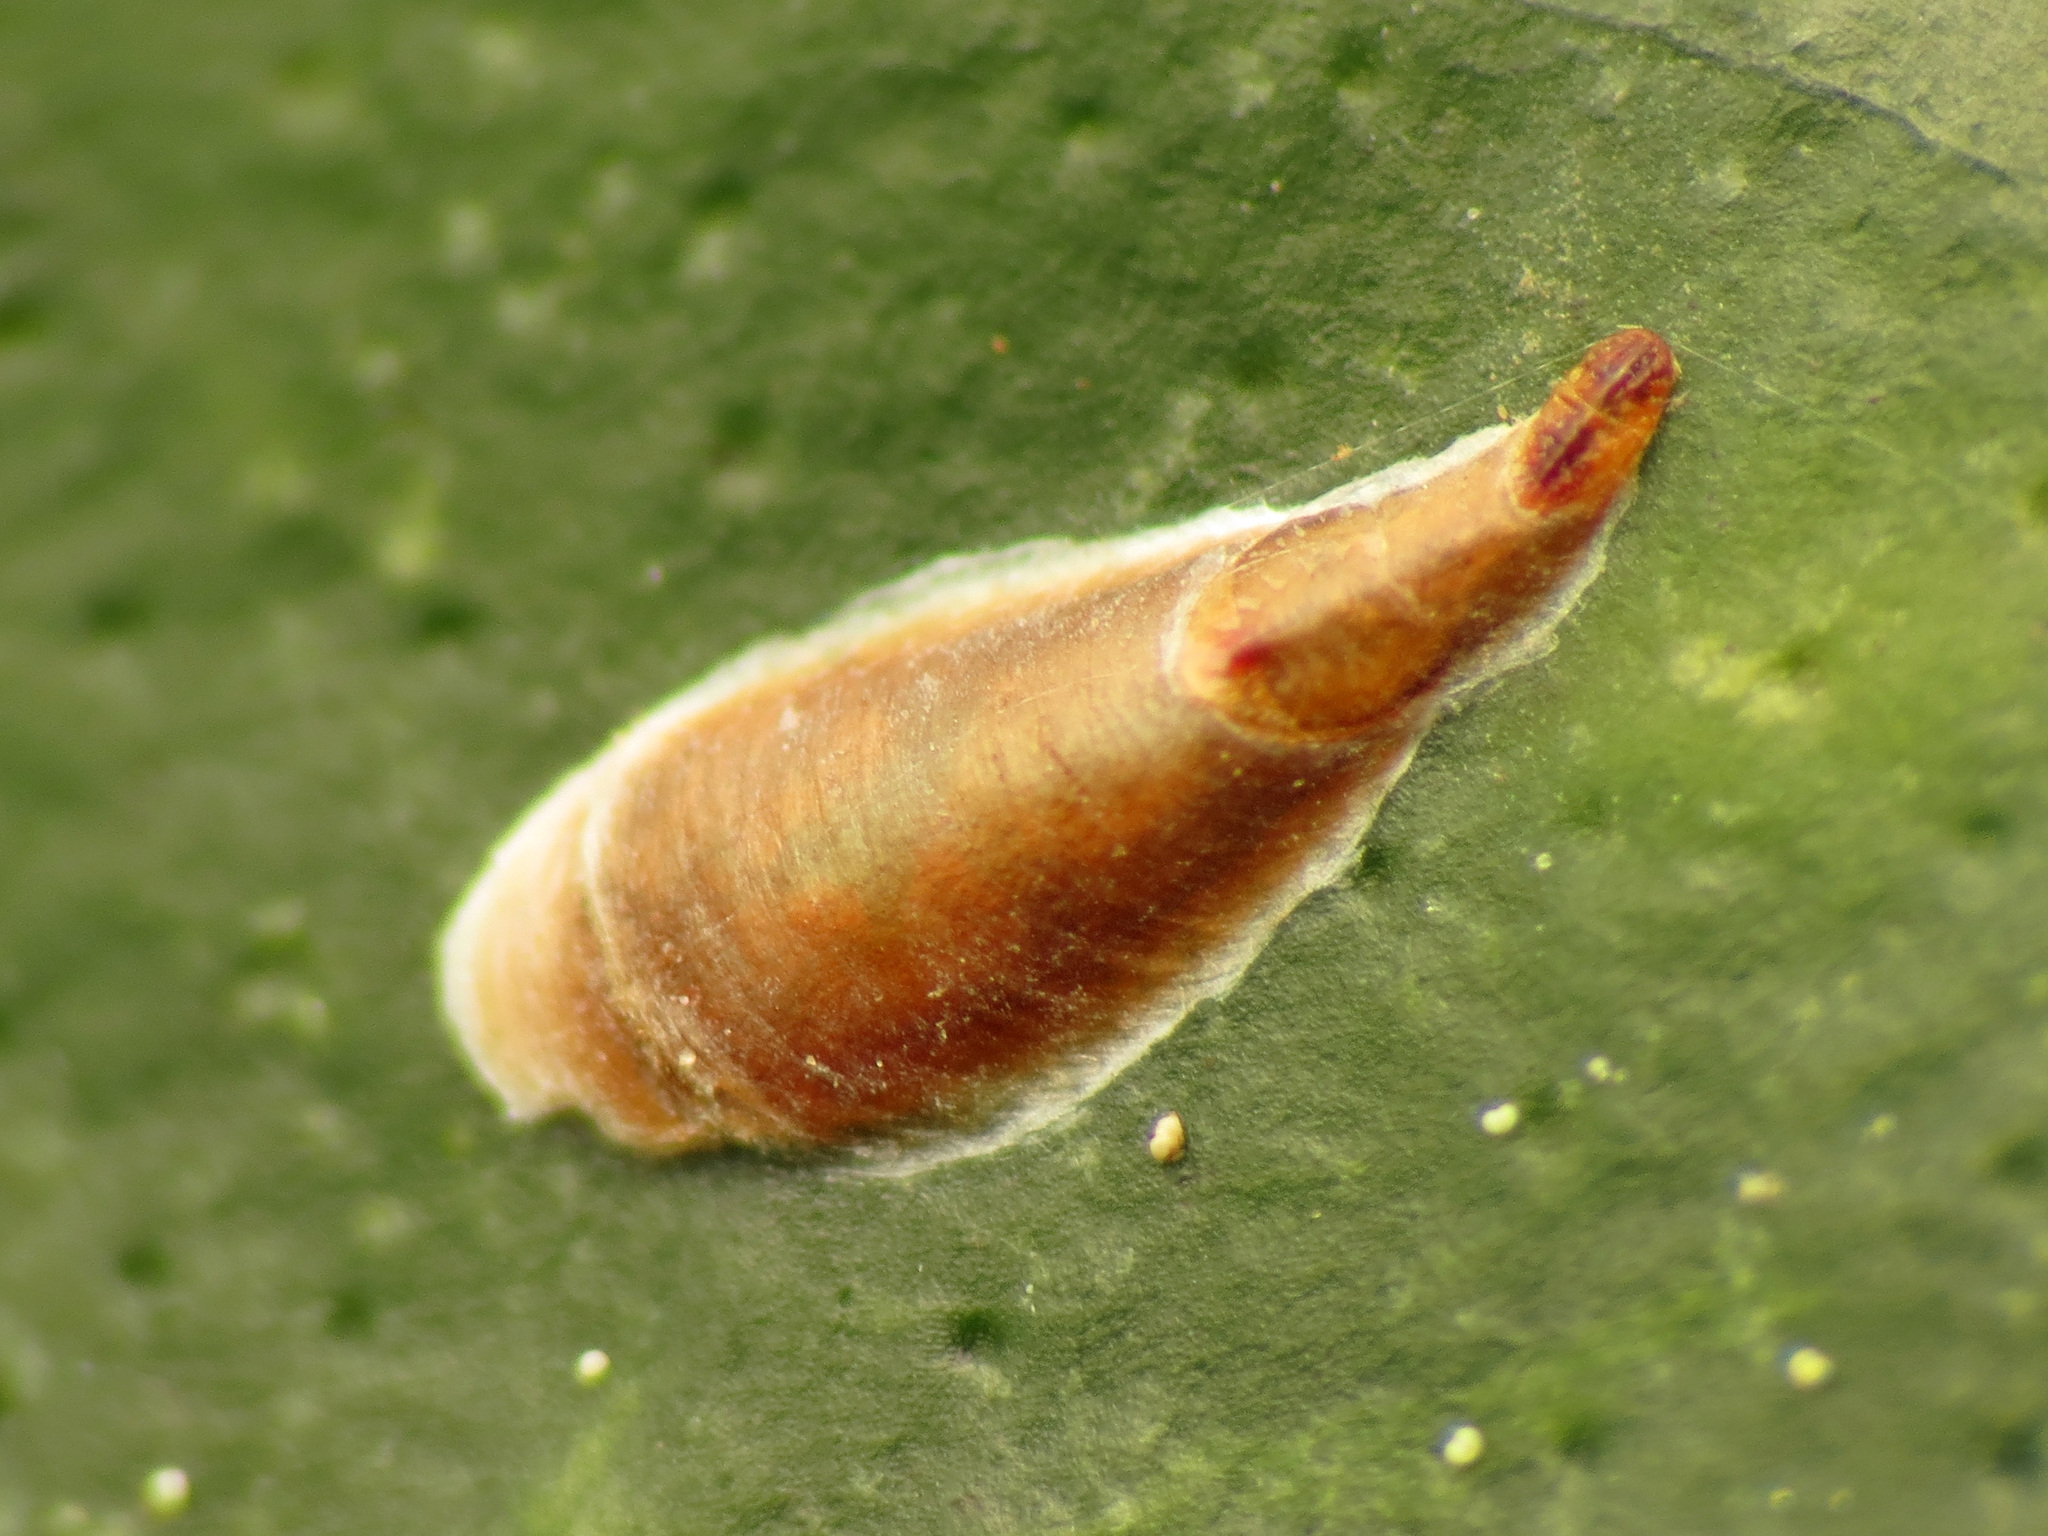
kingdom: Animalia
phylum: Arthropoda
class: Insecta
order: Hemiptera
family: Diaspididae
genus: Lepidosaphes
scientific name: Lepidosaphes beckii
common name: Purple scale
